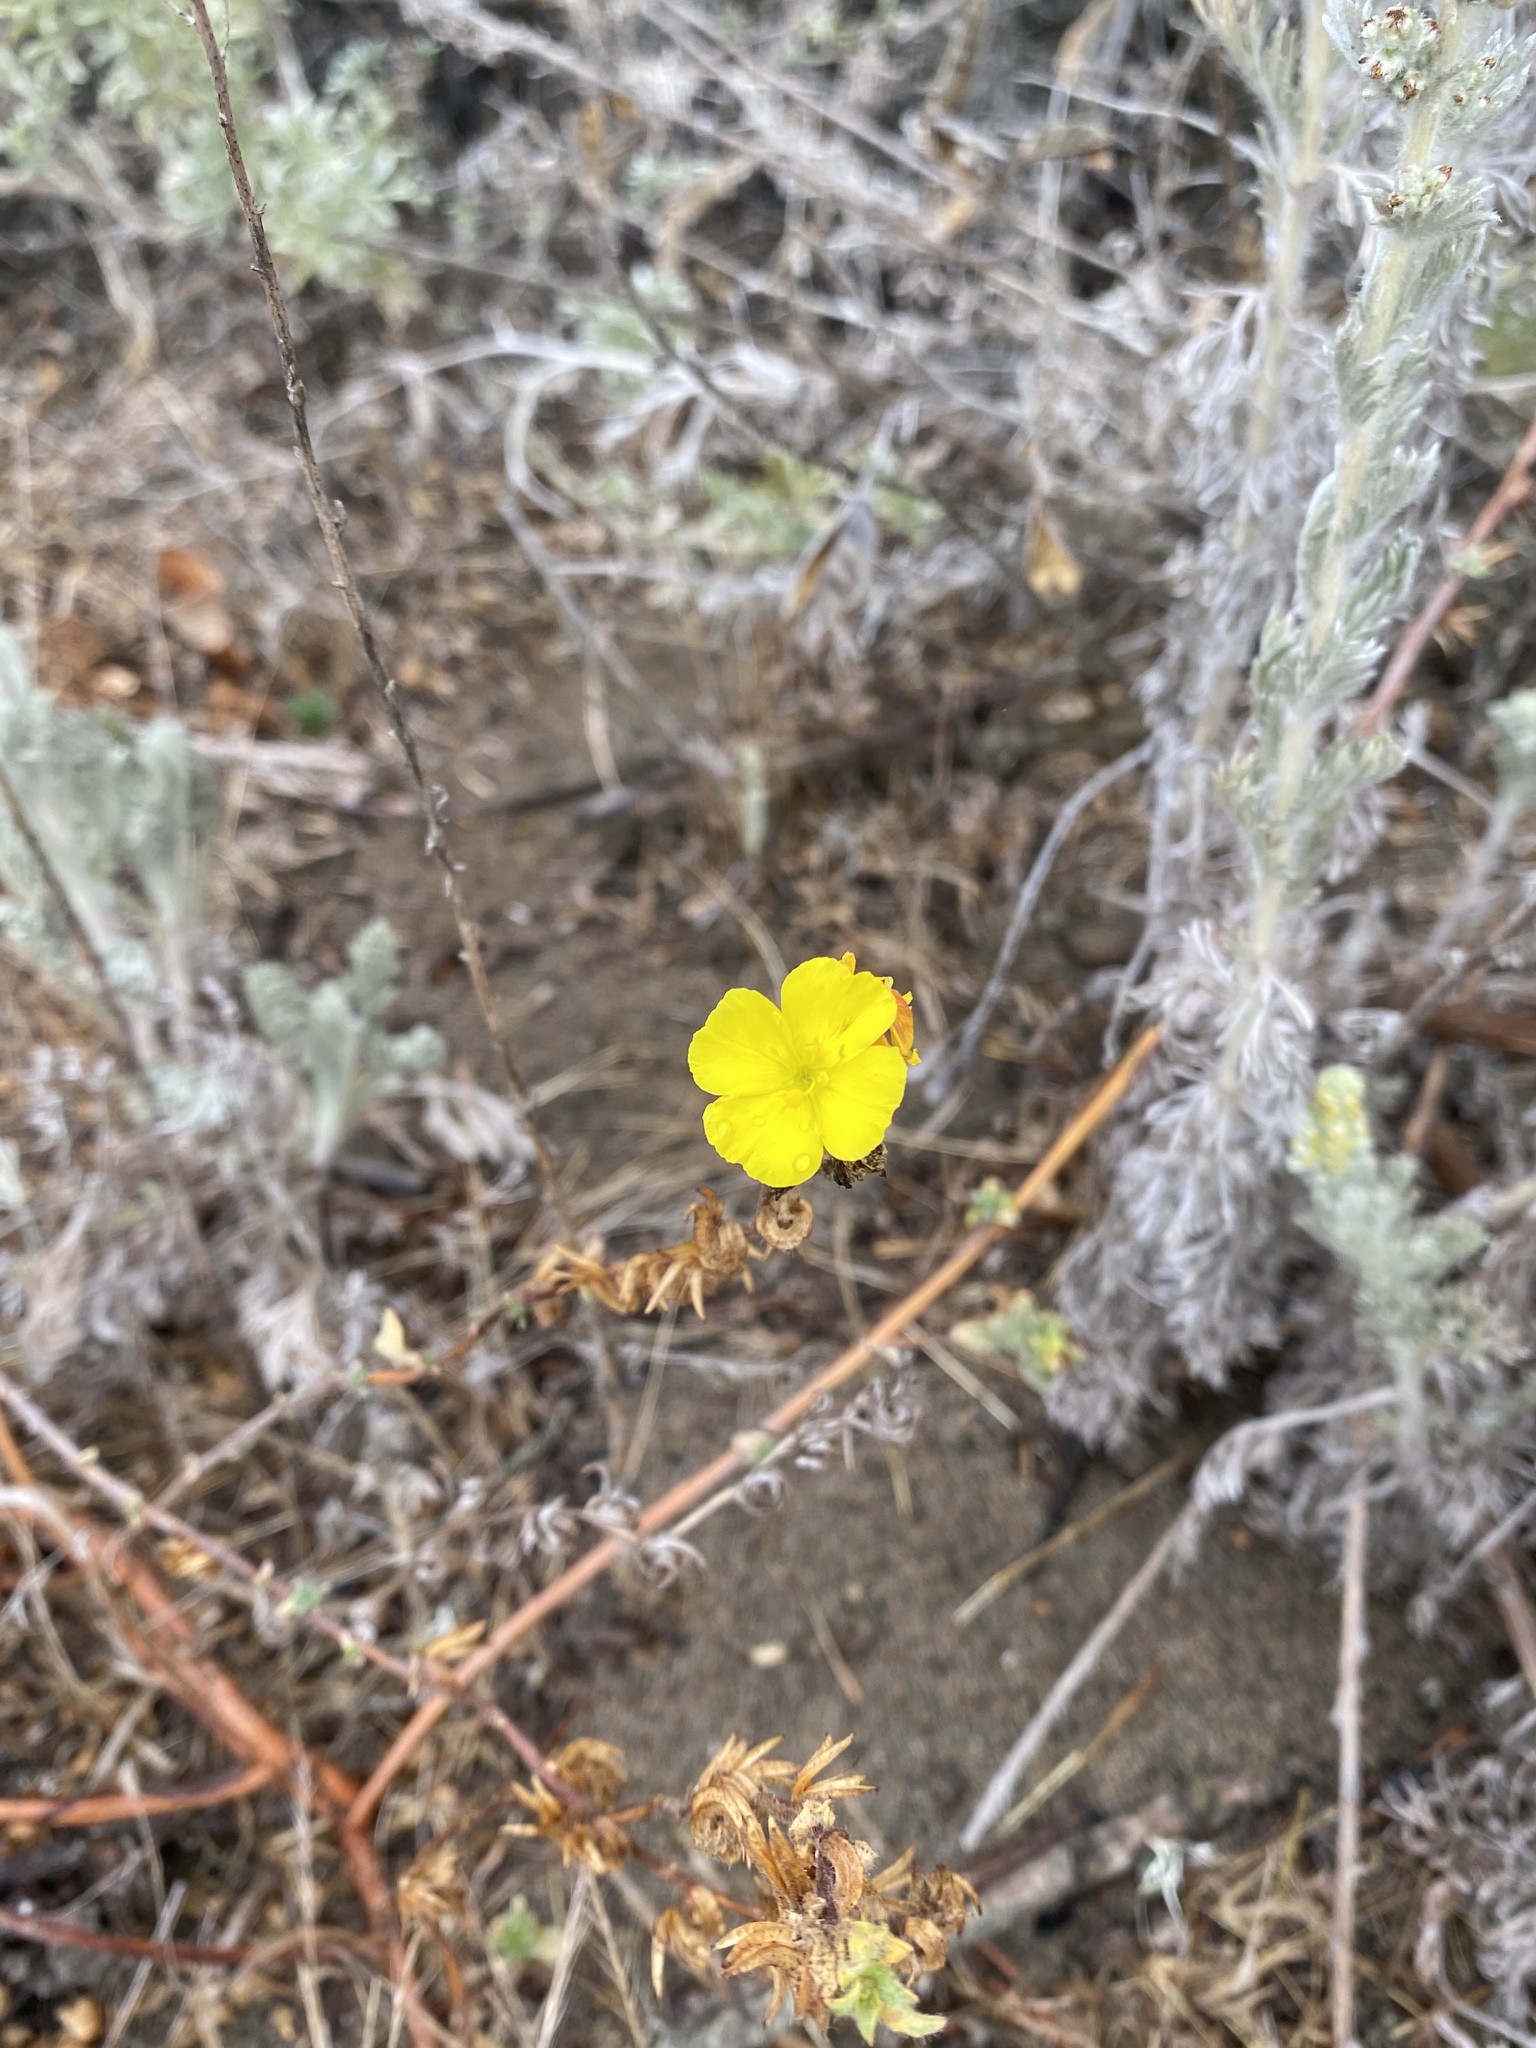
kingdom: Plantae
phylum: Tracheophyta
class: Magnoliopsida
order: Myrtales
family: Onagraceae
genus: Camissoniopsis
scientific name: Camissoniopsis cheiranthifolia
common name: Beach suncup
